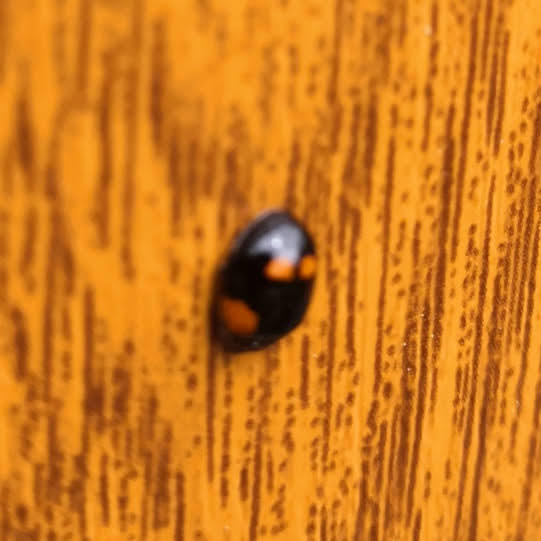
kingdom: Animalia
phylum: Arthropoda
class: Insecta
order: Coleoptera
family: Coccinellidae
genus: Adalia
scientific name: Adalia bipunctata
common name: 2-spot ladybird
